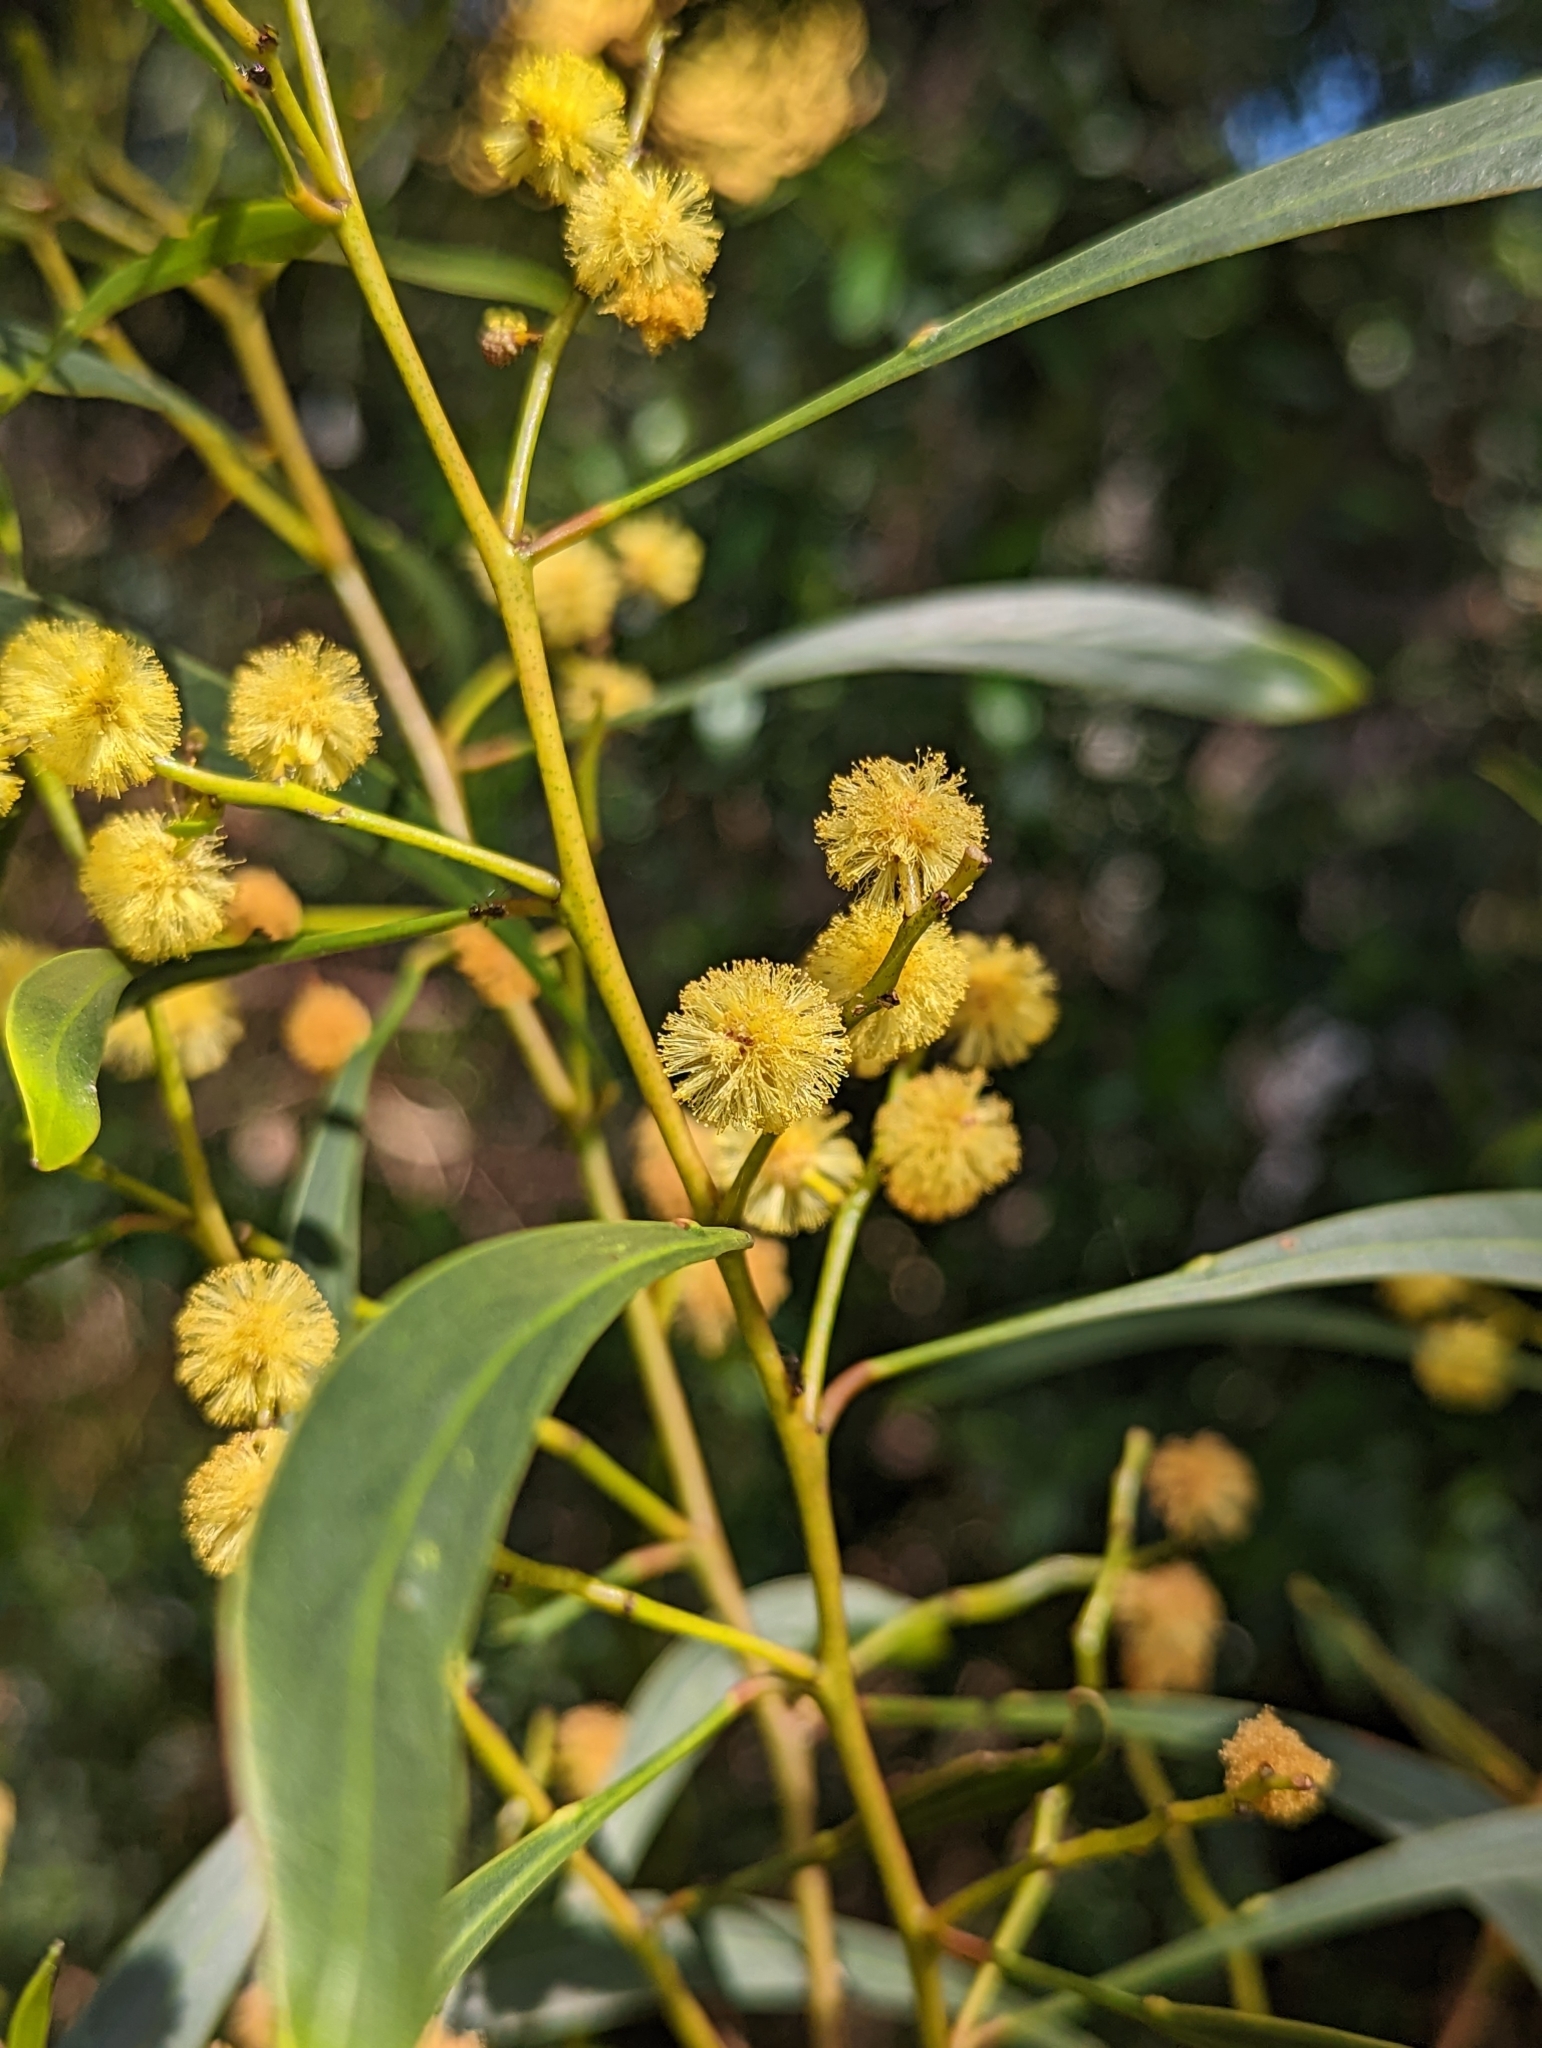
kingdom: Plantae
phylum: Tracheophyta
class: Magnoliopsida
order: Fabales
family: Fabaceae
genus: Acacia
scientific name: Acacia pycnantha
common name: Golden wattle
